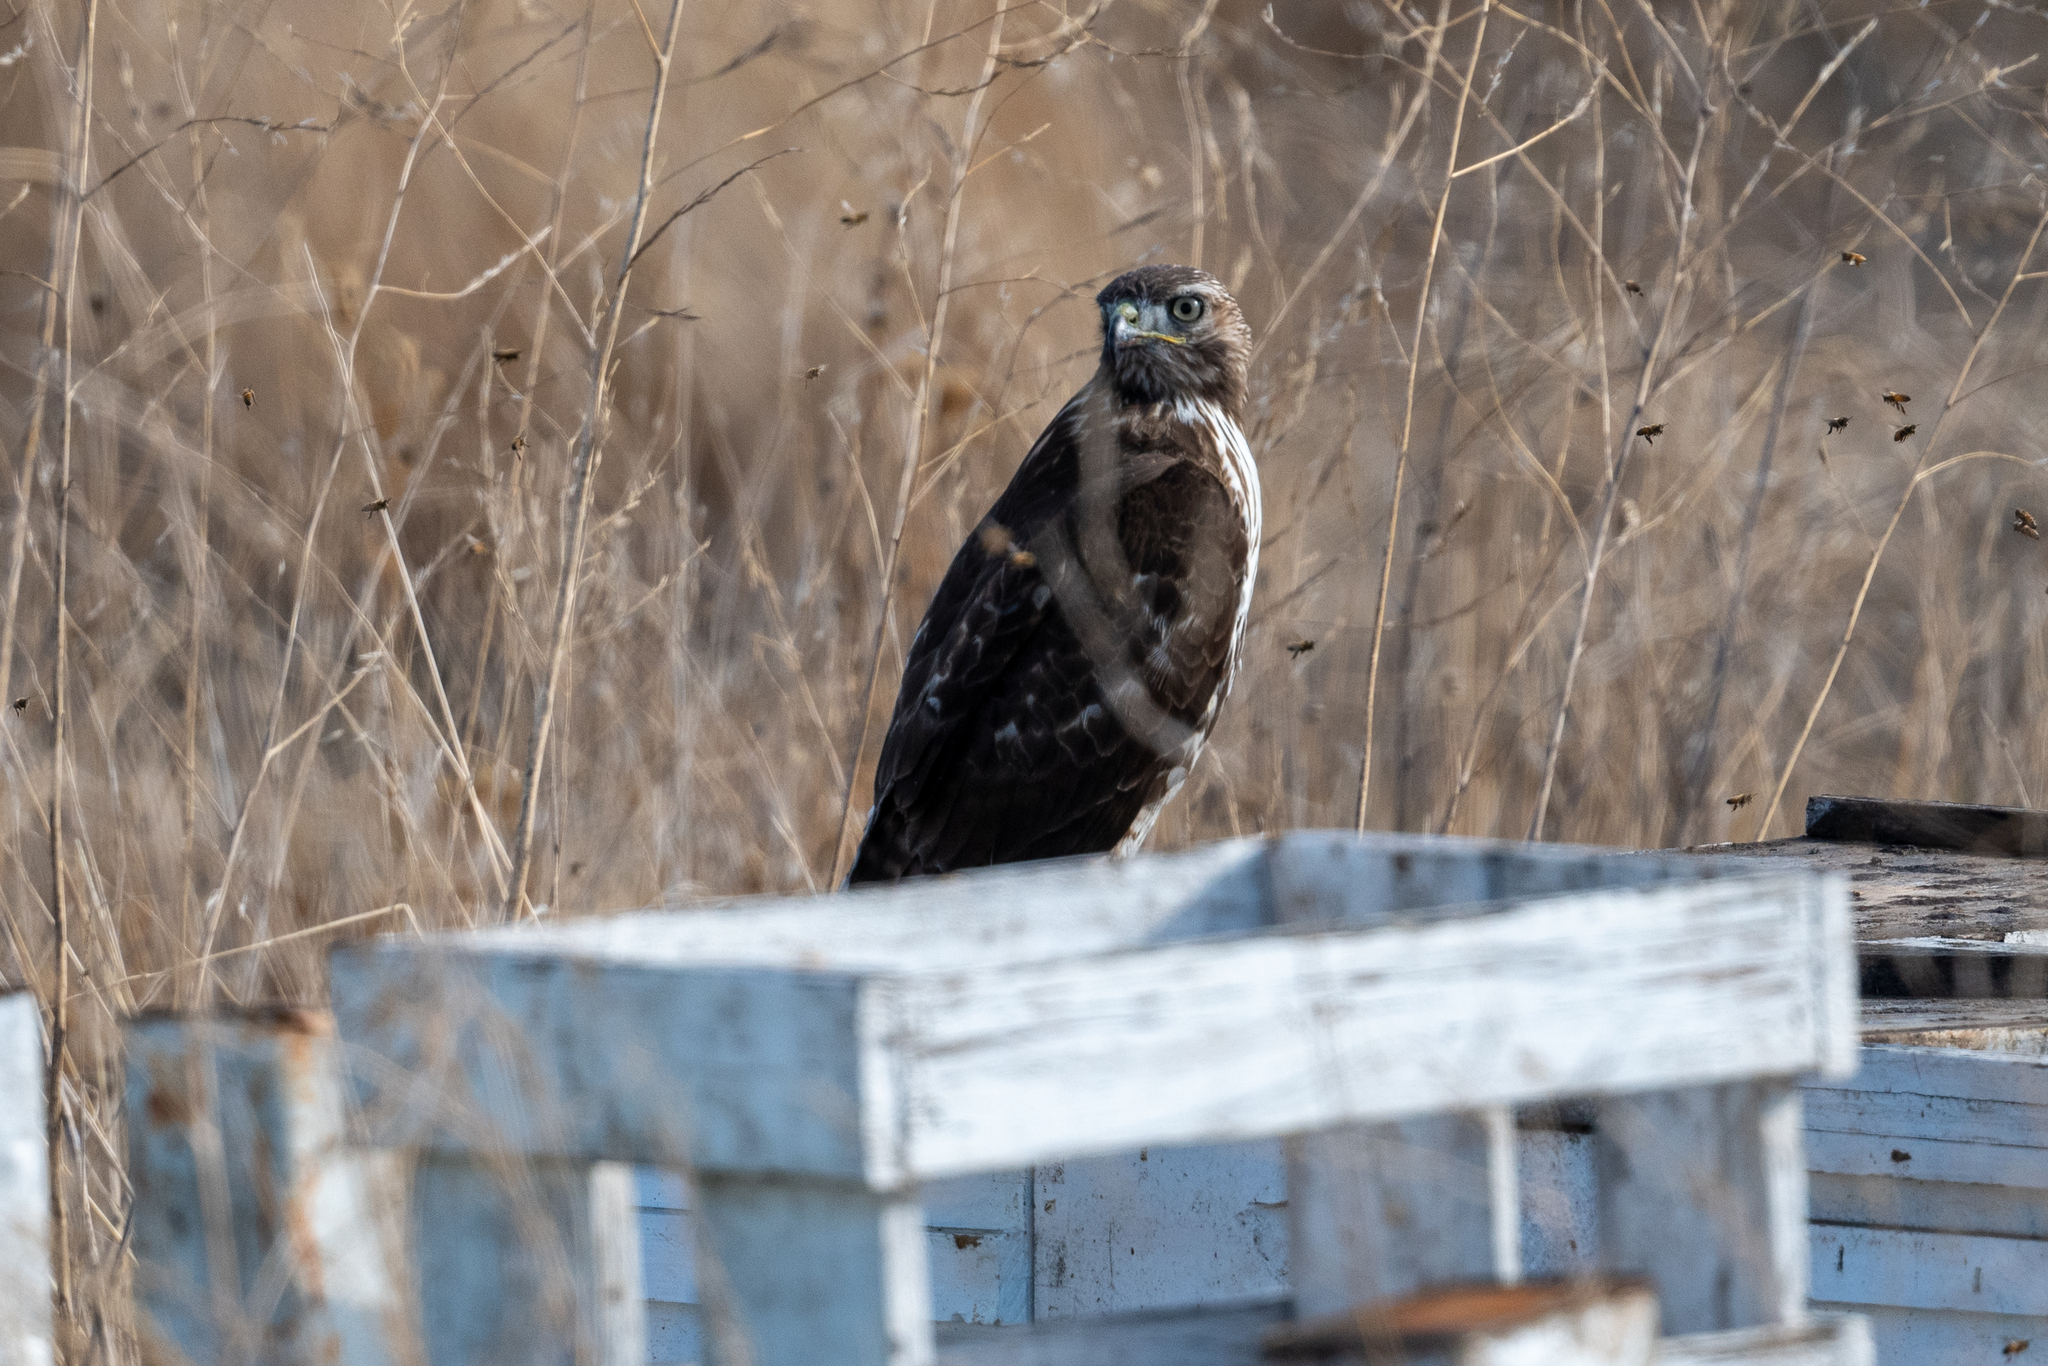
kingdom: Animalia
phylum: Chordata
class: Aves
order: Accipitriformes
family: Accipitridae
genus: Buteo
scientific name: Buteo jamaicensis
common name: Red-tailed hawk
